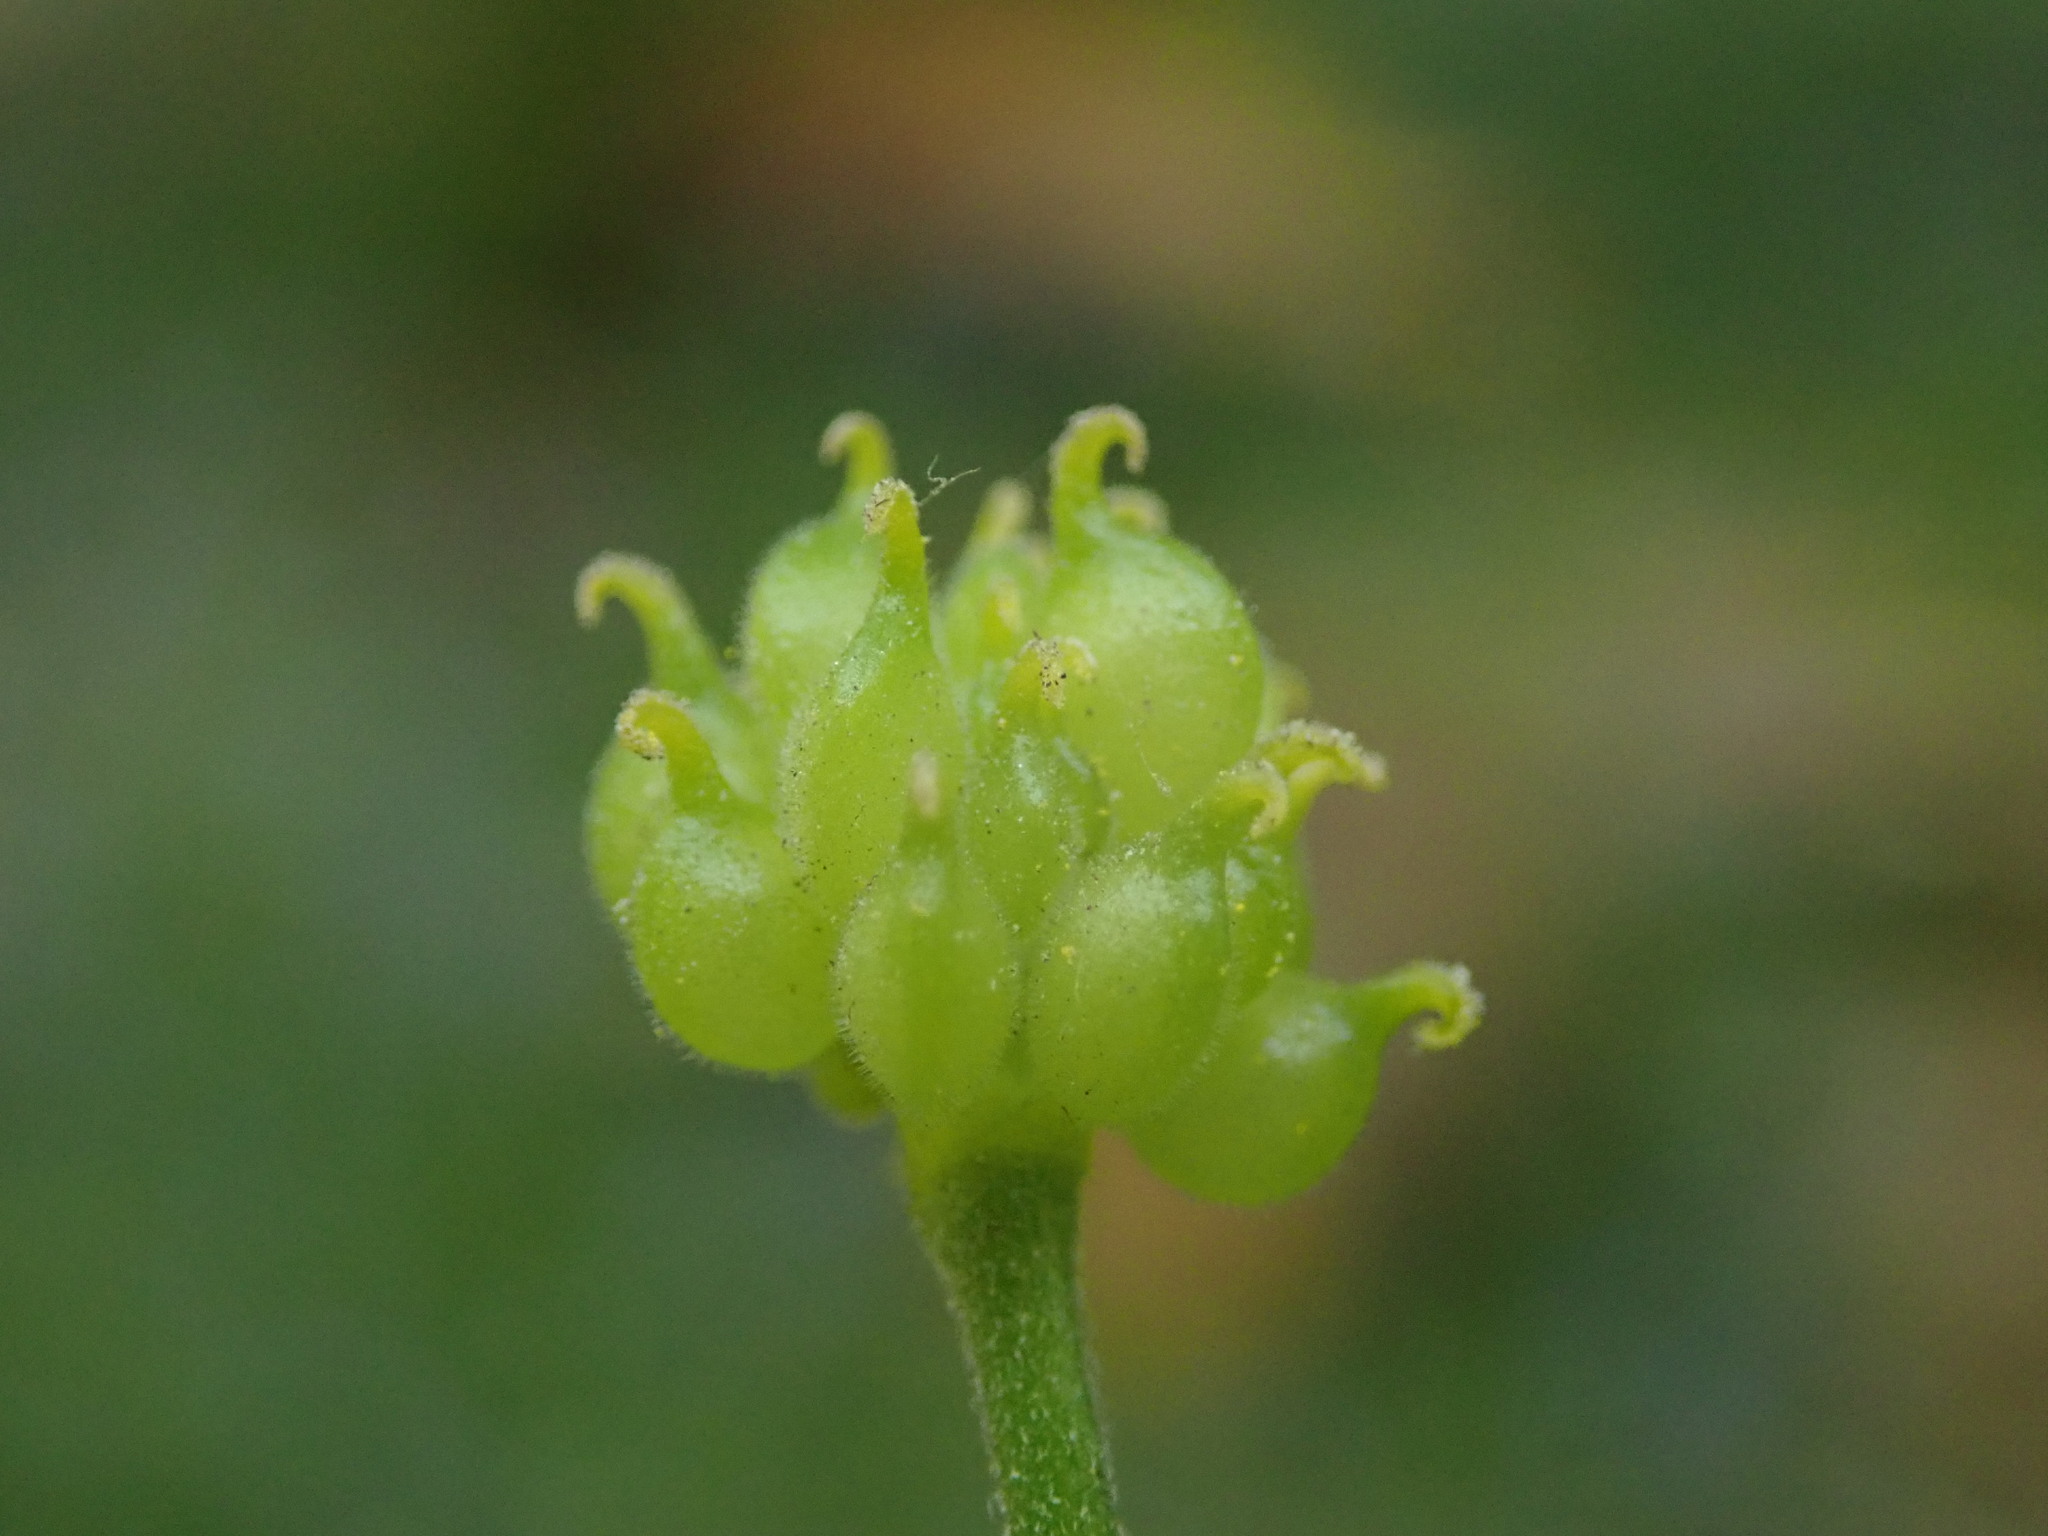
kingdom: Plantae
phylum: Tracheophyta
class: Magnoliopsida
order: Ranunculales
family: Ranunculaceae
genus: Ranunculus
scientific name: Ranunculus auricomus
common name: Goldilocks buttercup
